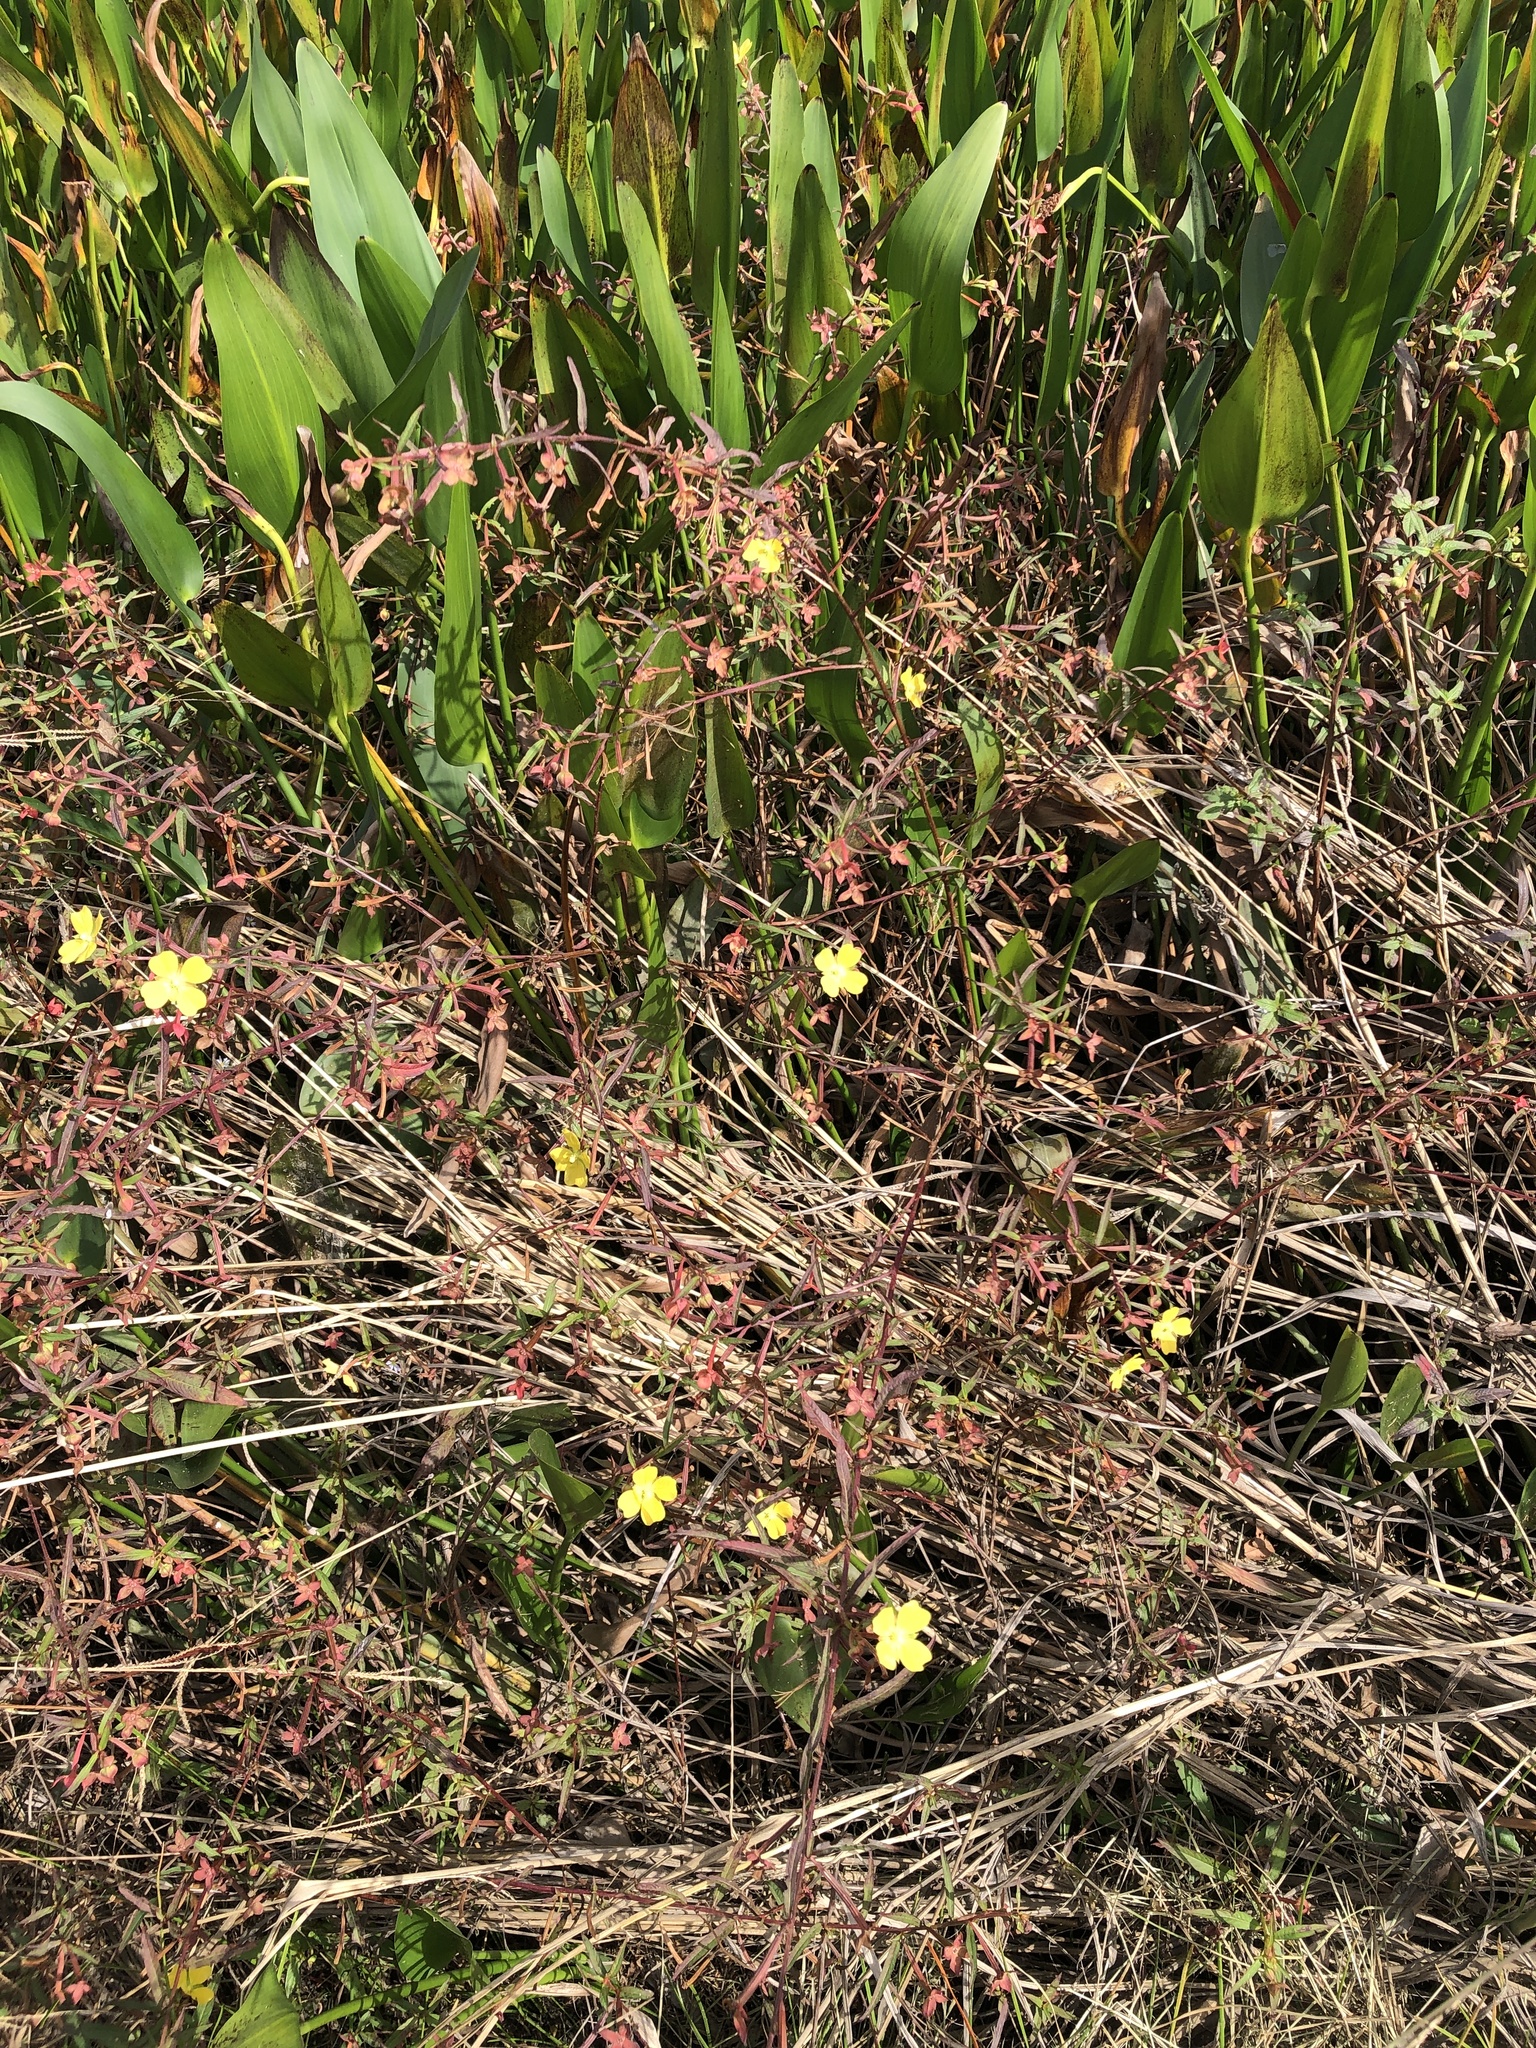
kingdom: Plantae
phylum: Tracheophyta
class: Magnoliopsida
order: Myrtales
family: Onagraceae
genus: Ludwigia
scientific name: Ludwigia octovalvis
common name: Water-primrose
